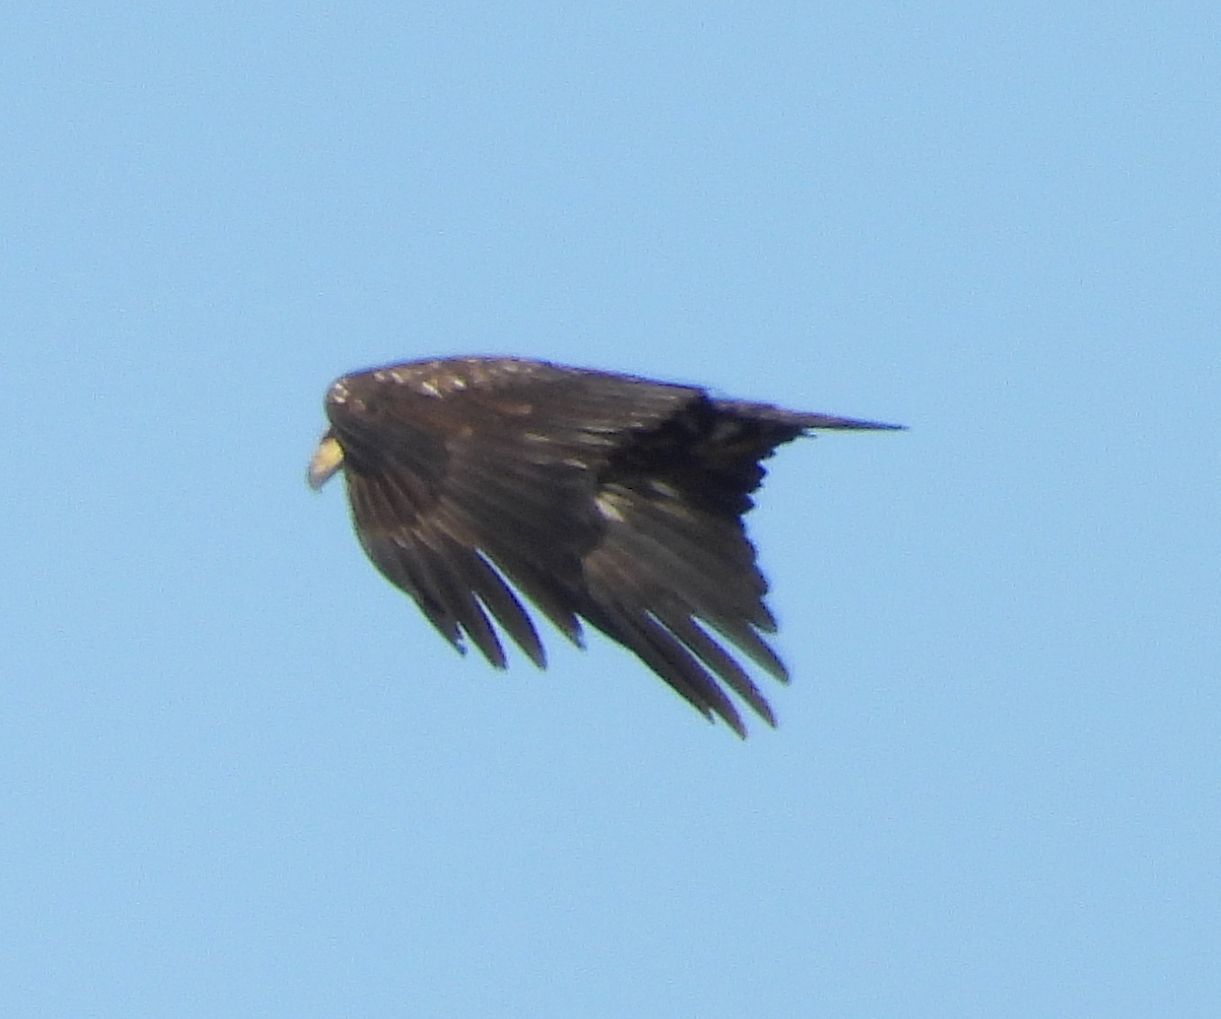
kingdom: Animalia
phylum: Chordata
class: Aves
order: Accipitriformes
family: Accipitridae
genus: Haliaeetus
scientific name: Haliaeetus leucocephalus
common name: Bald eagle
